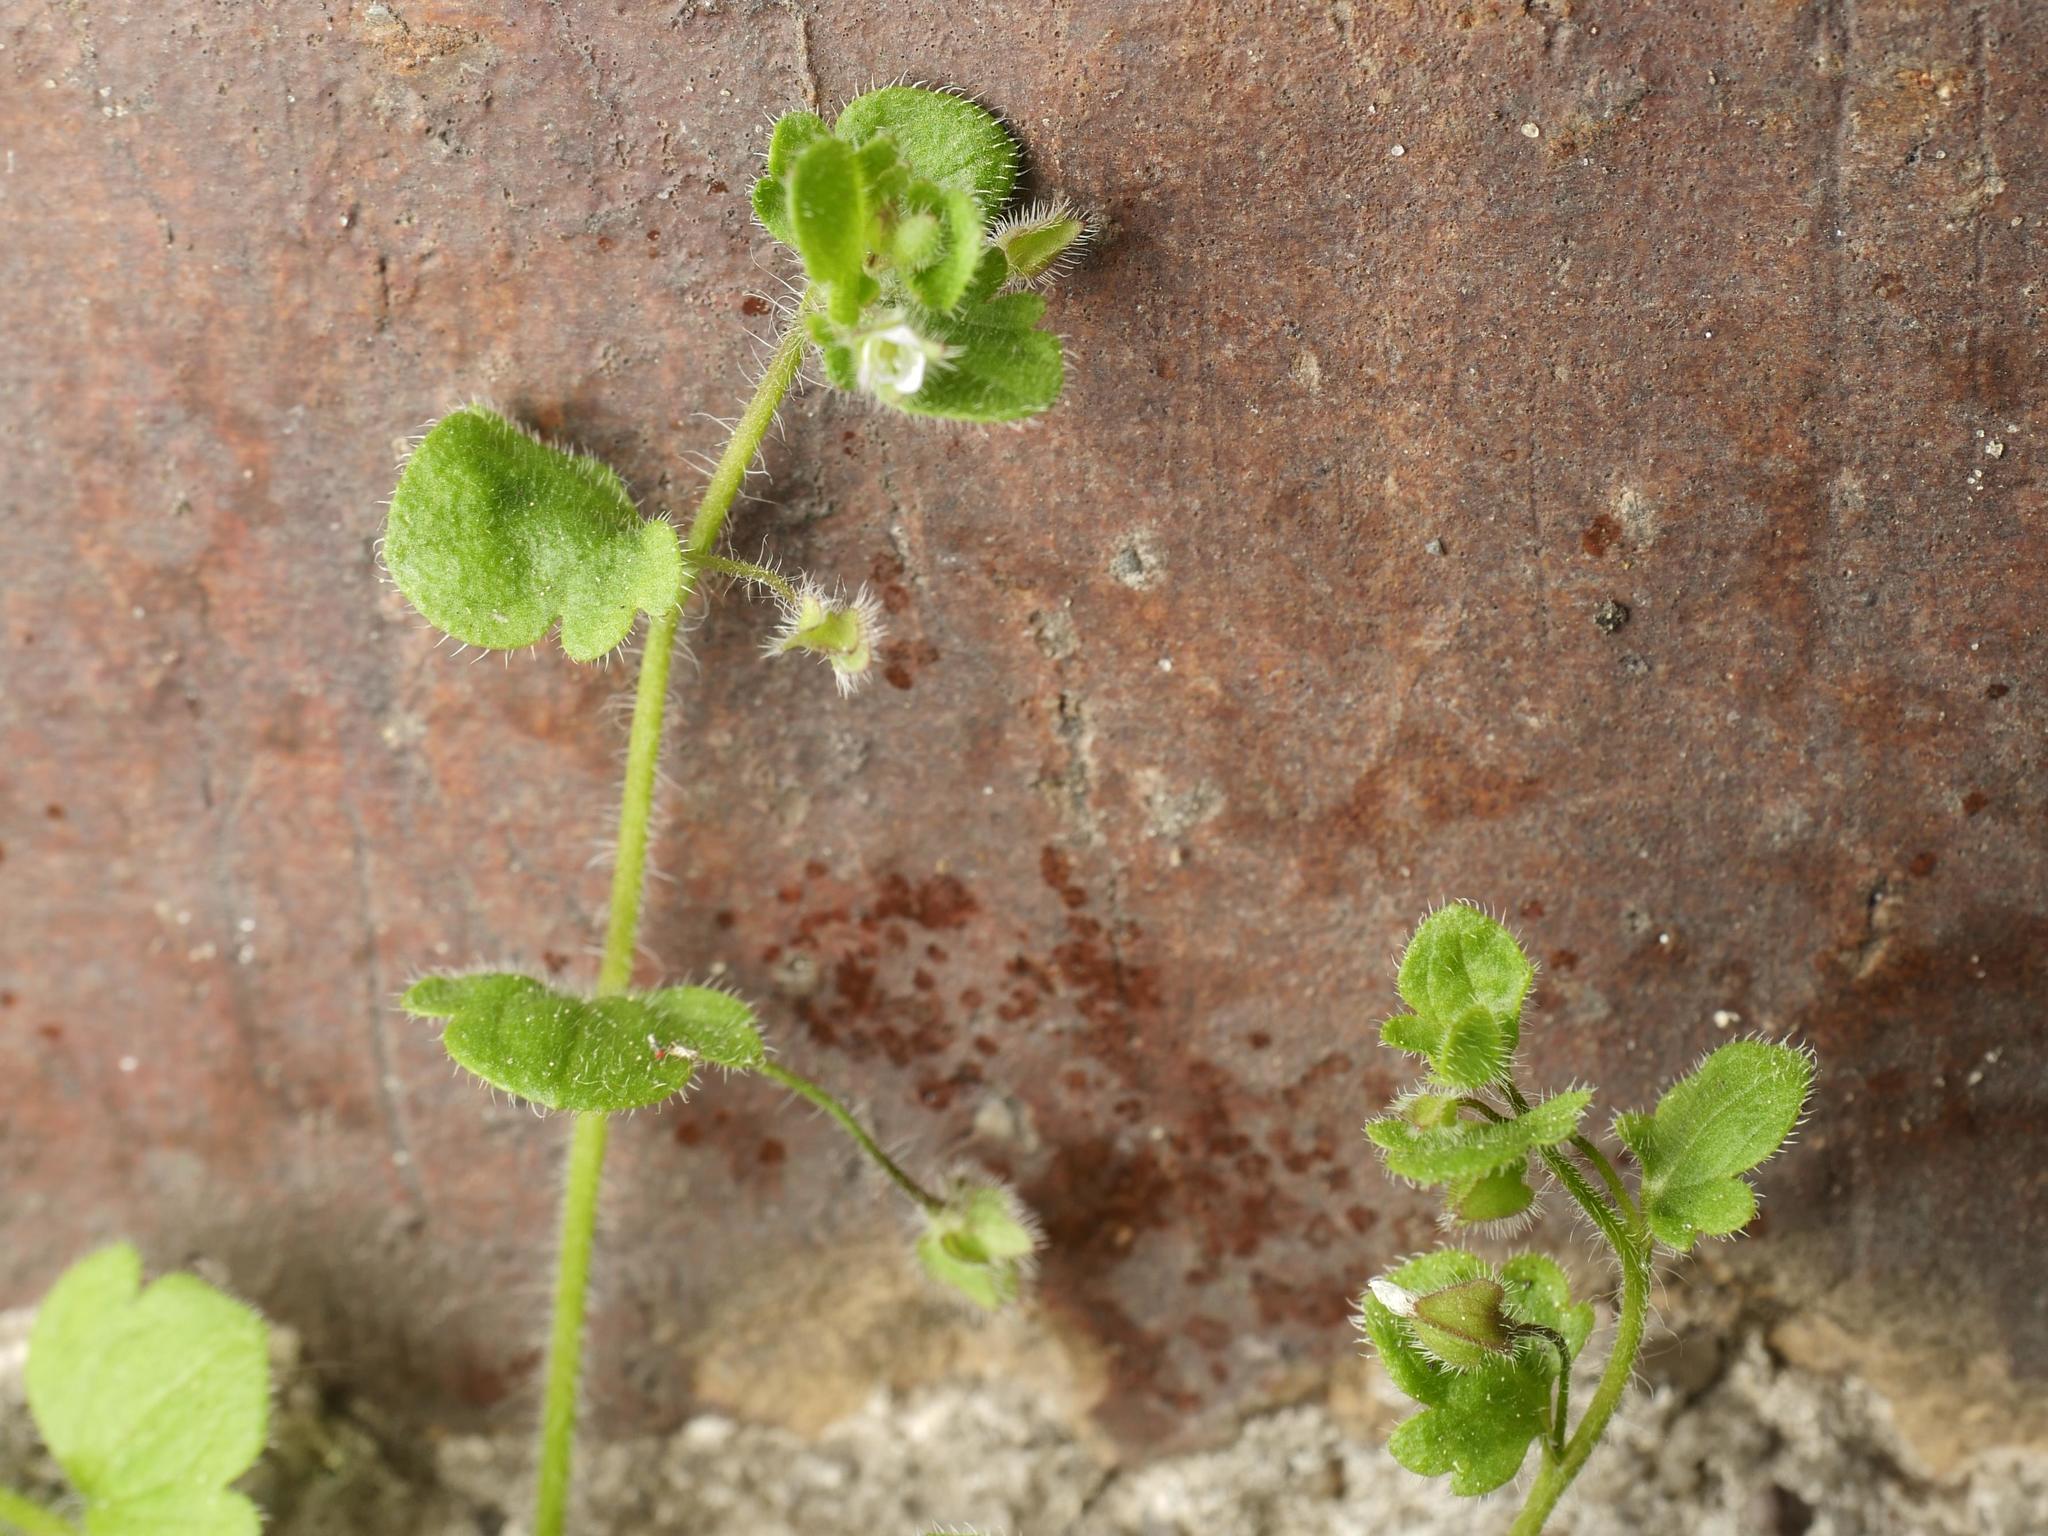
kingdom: Plantae
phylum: Tracheophyta
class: Magnoliopsida
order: Lamiales
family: Plantaginaceae
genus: Veronica
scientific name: Veronica sublobata
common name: False ivy-leaved speedwell
